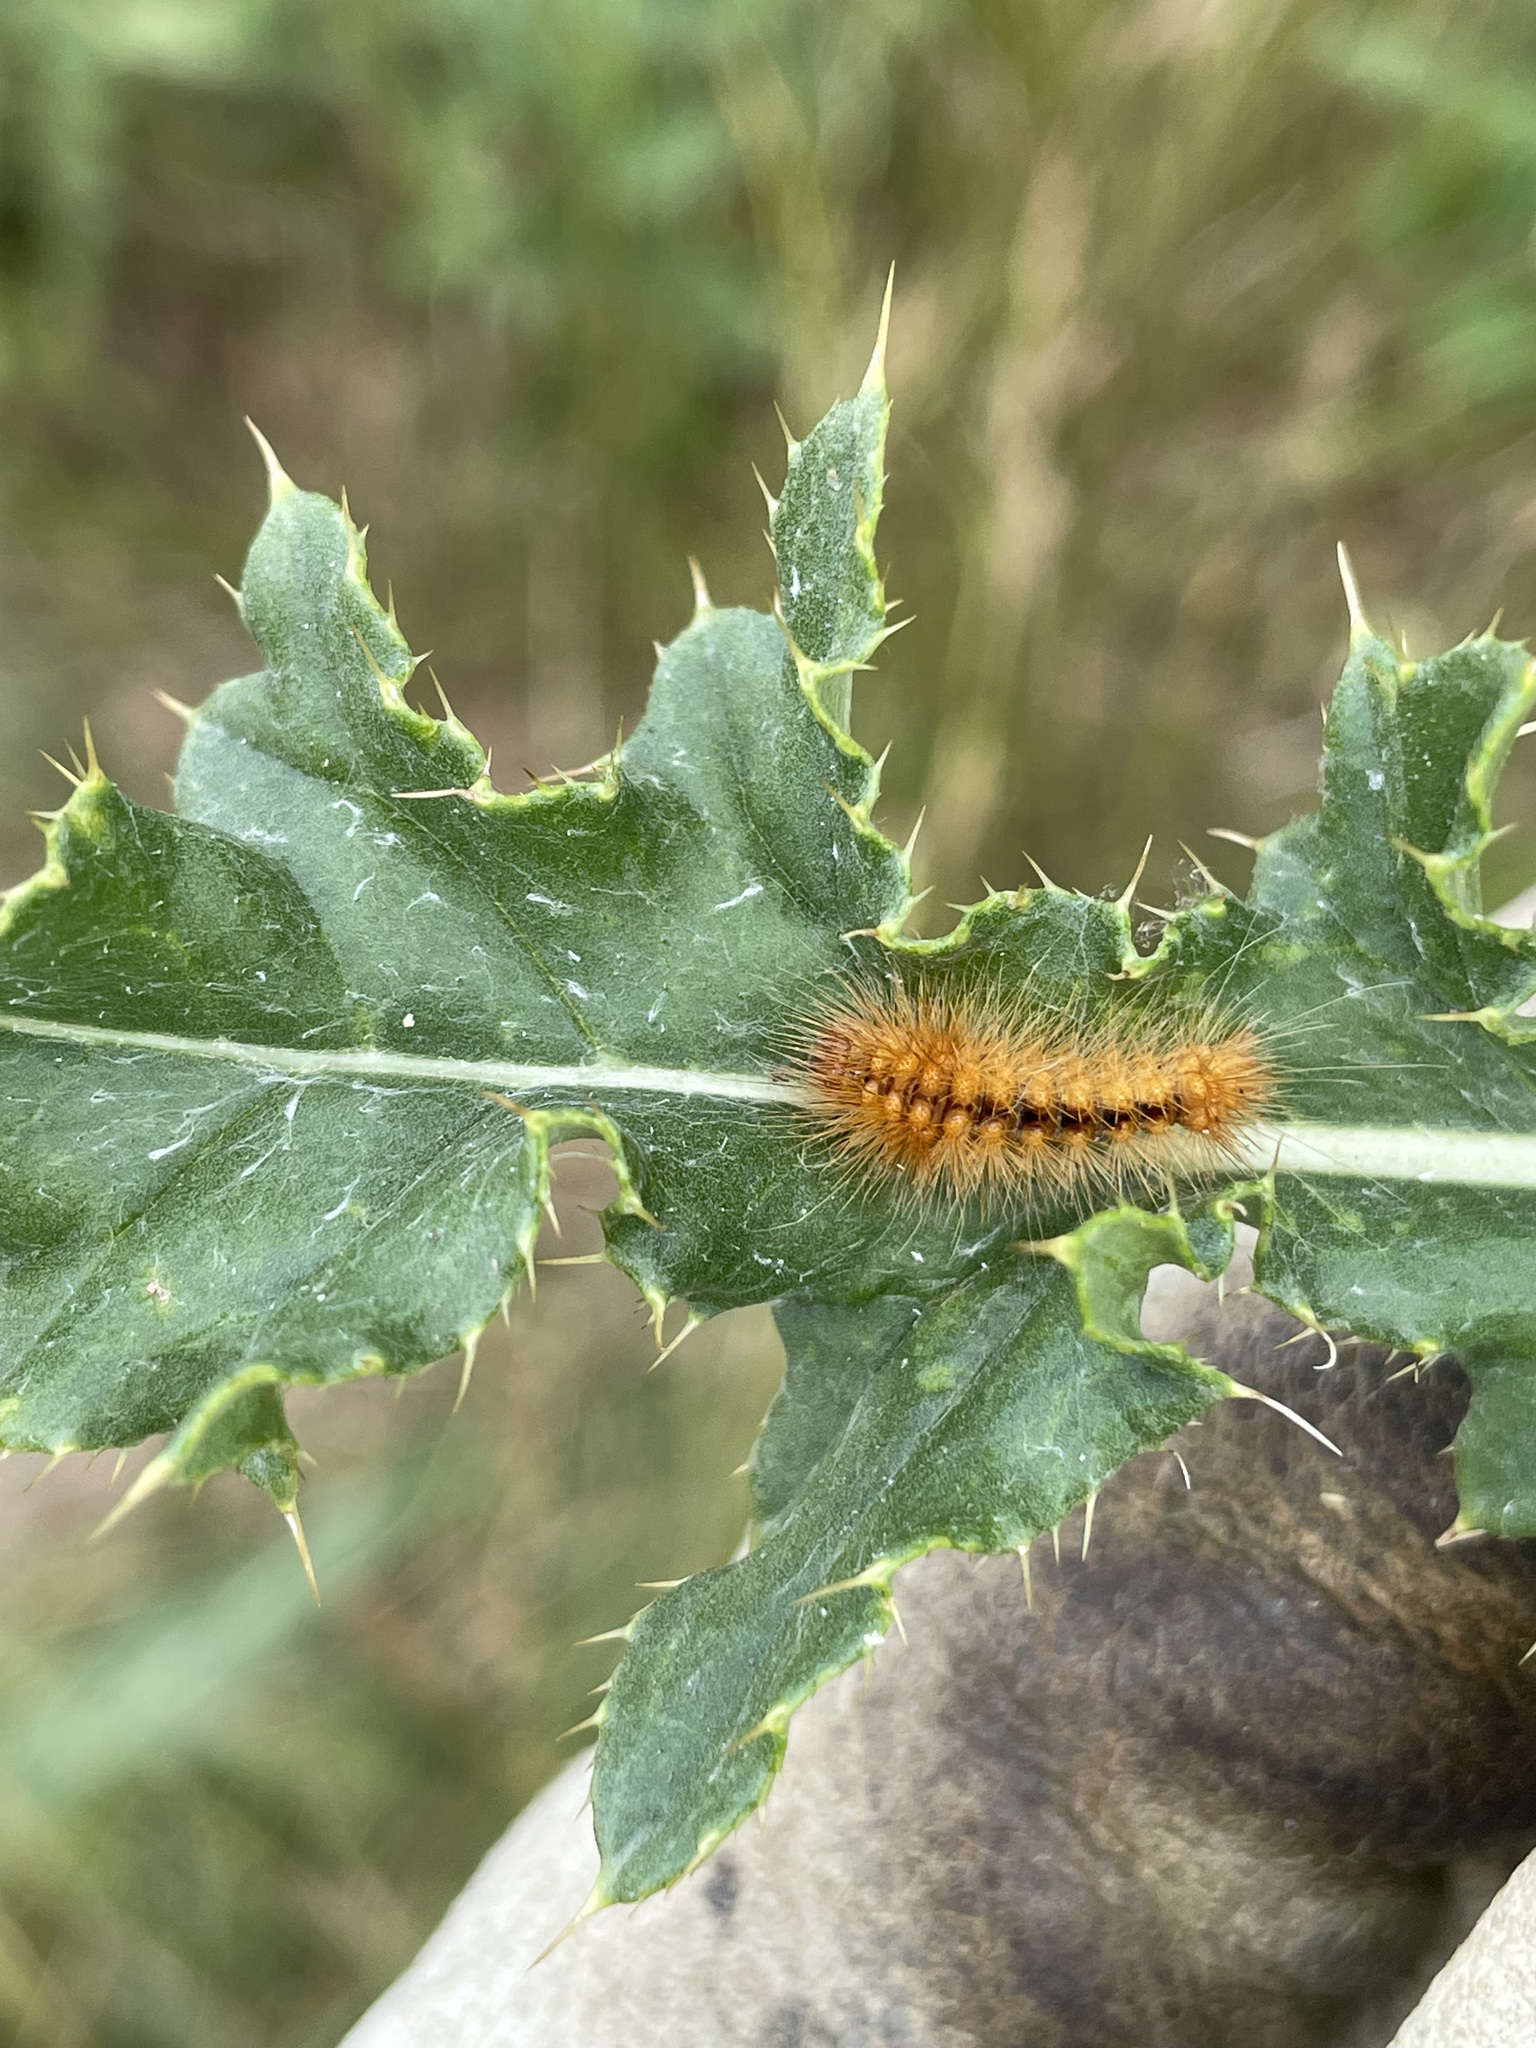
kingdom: Animalia
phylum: Arthropoda
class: Insecta
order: Lepidoptera
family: Noctuidae
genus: Acronicta
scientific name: Acronicta impressa
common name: Impressed dagger
